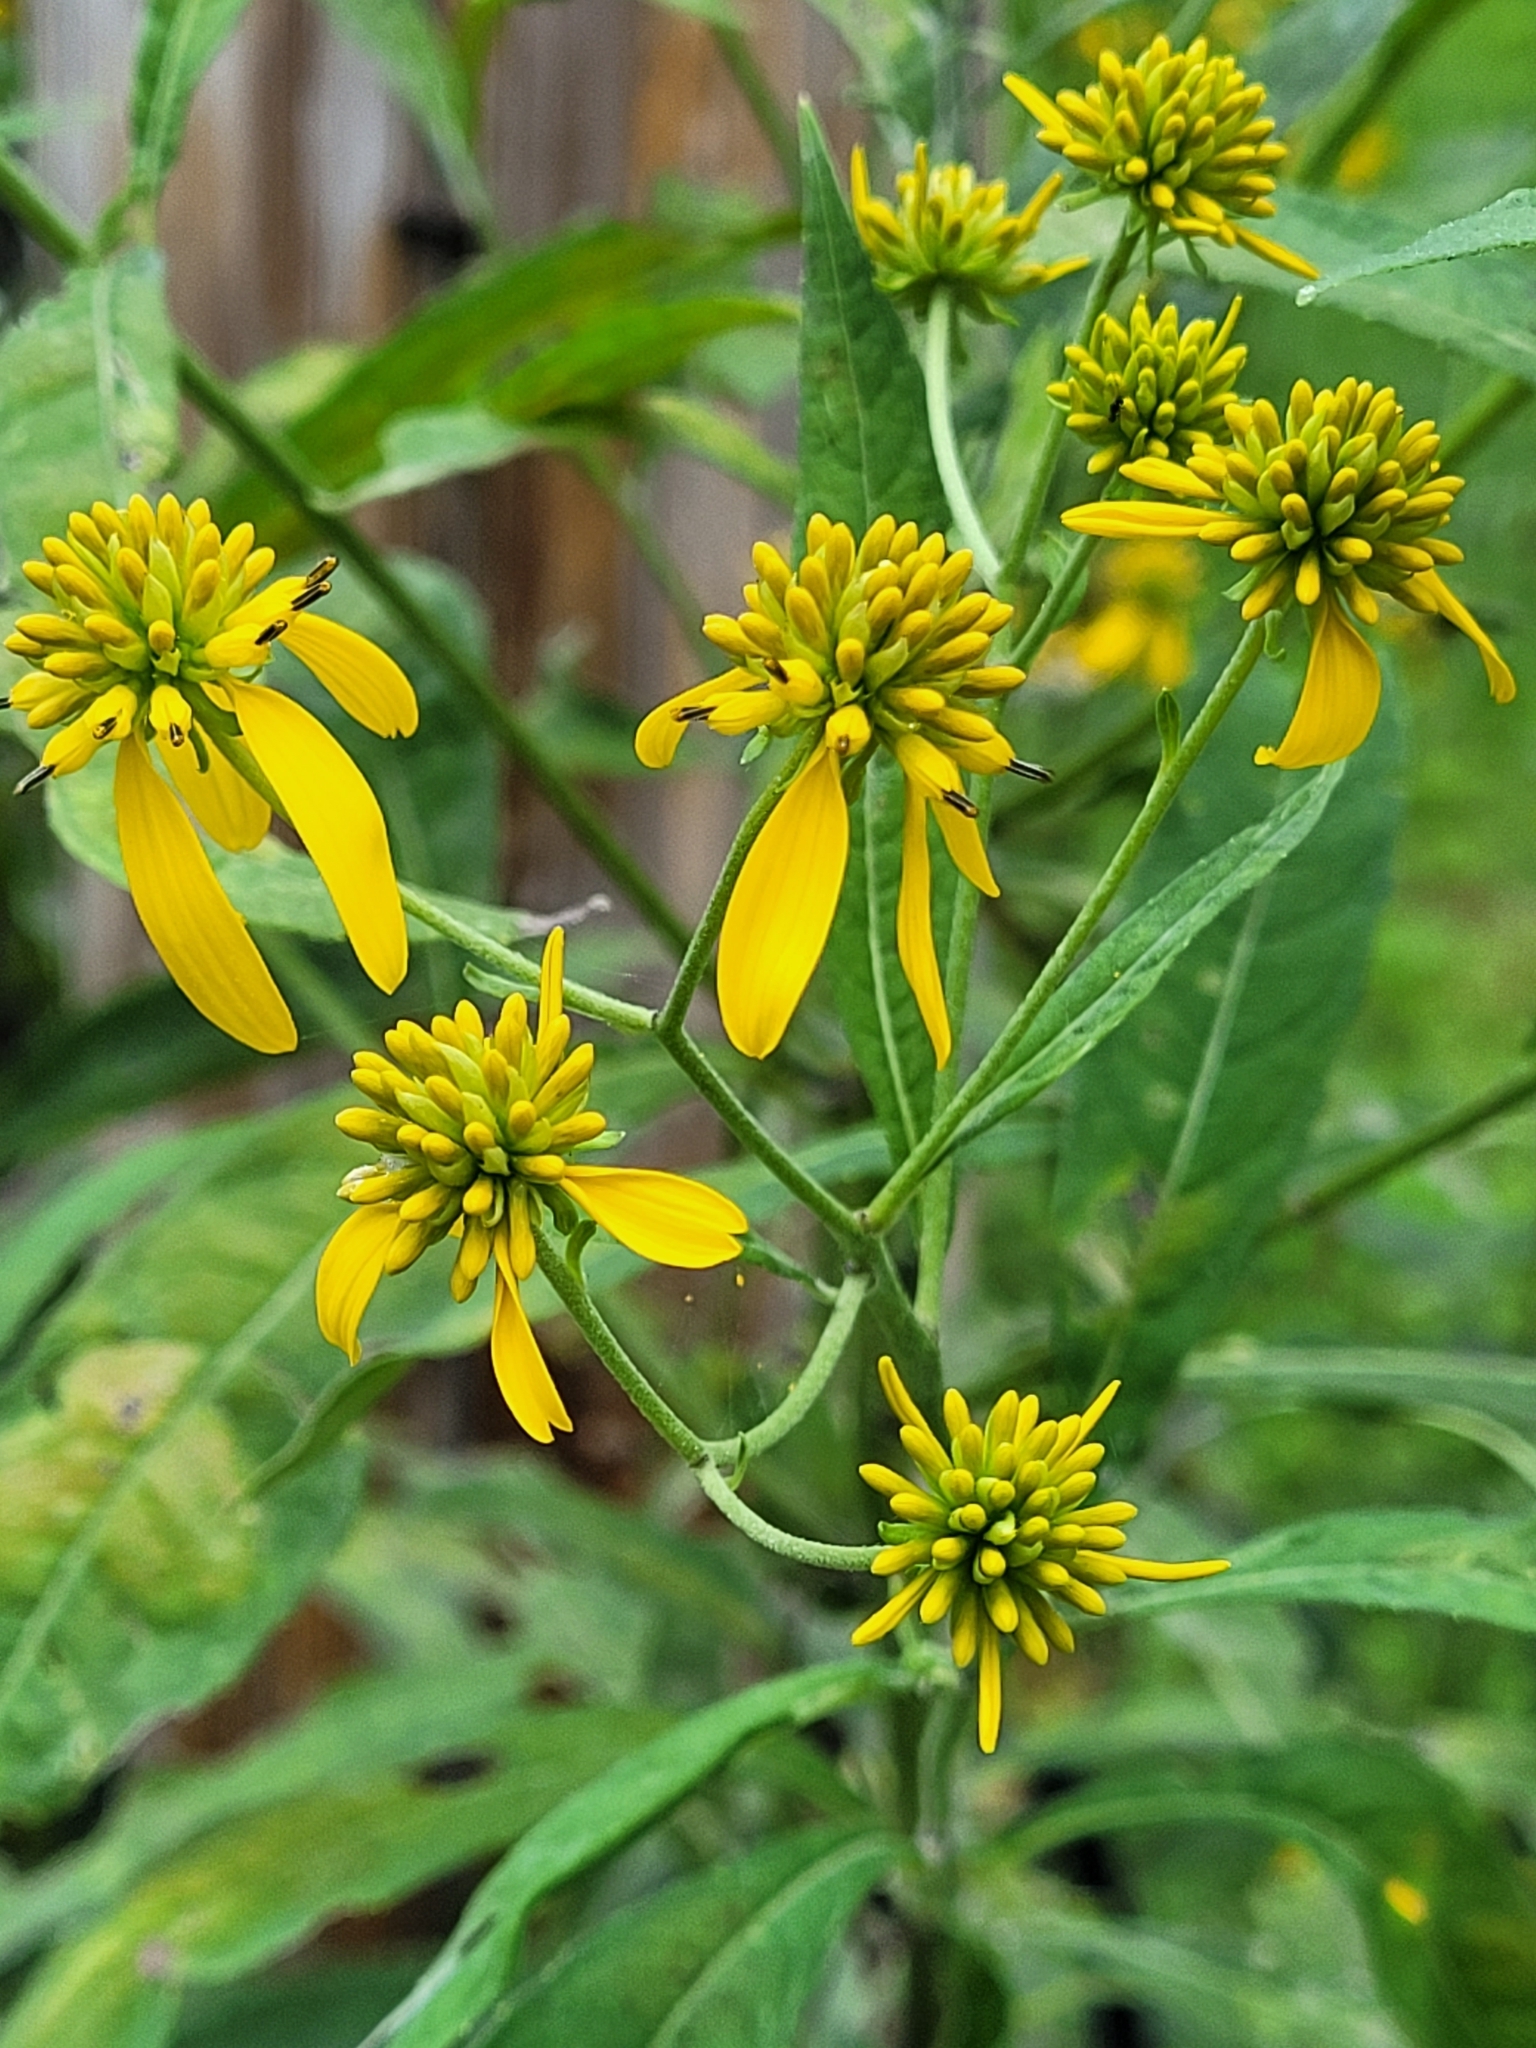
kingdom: Plantae
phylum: Tracheophyta
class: Magnoliopsida
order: Asterales
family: Asteraceae
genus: Verbesina
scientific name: Verbesina alternifolia
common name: Wingstem
